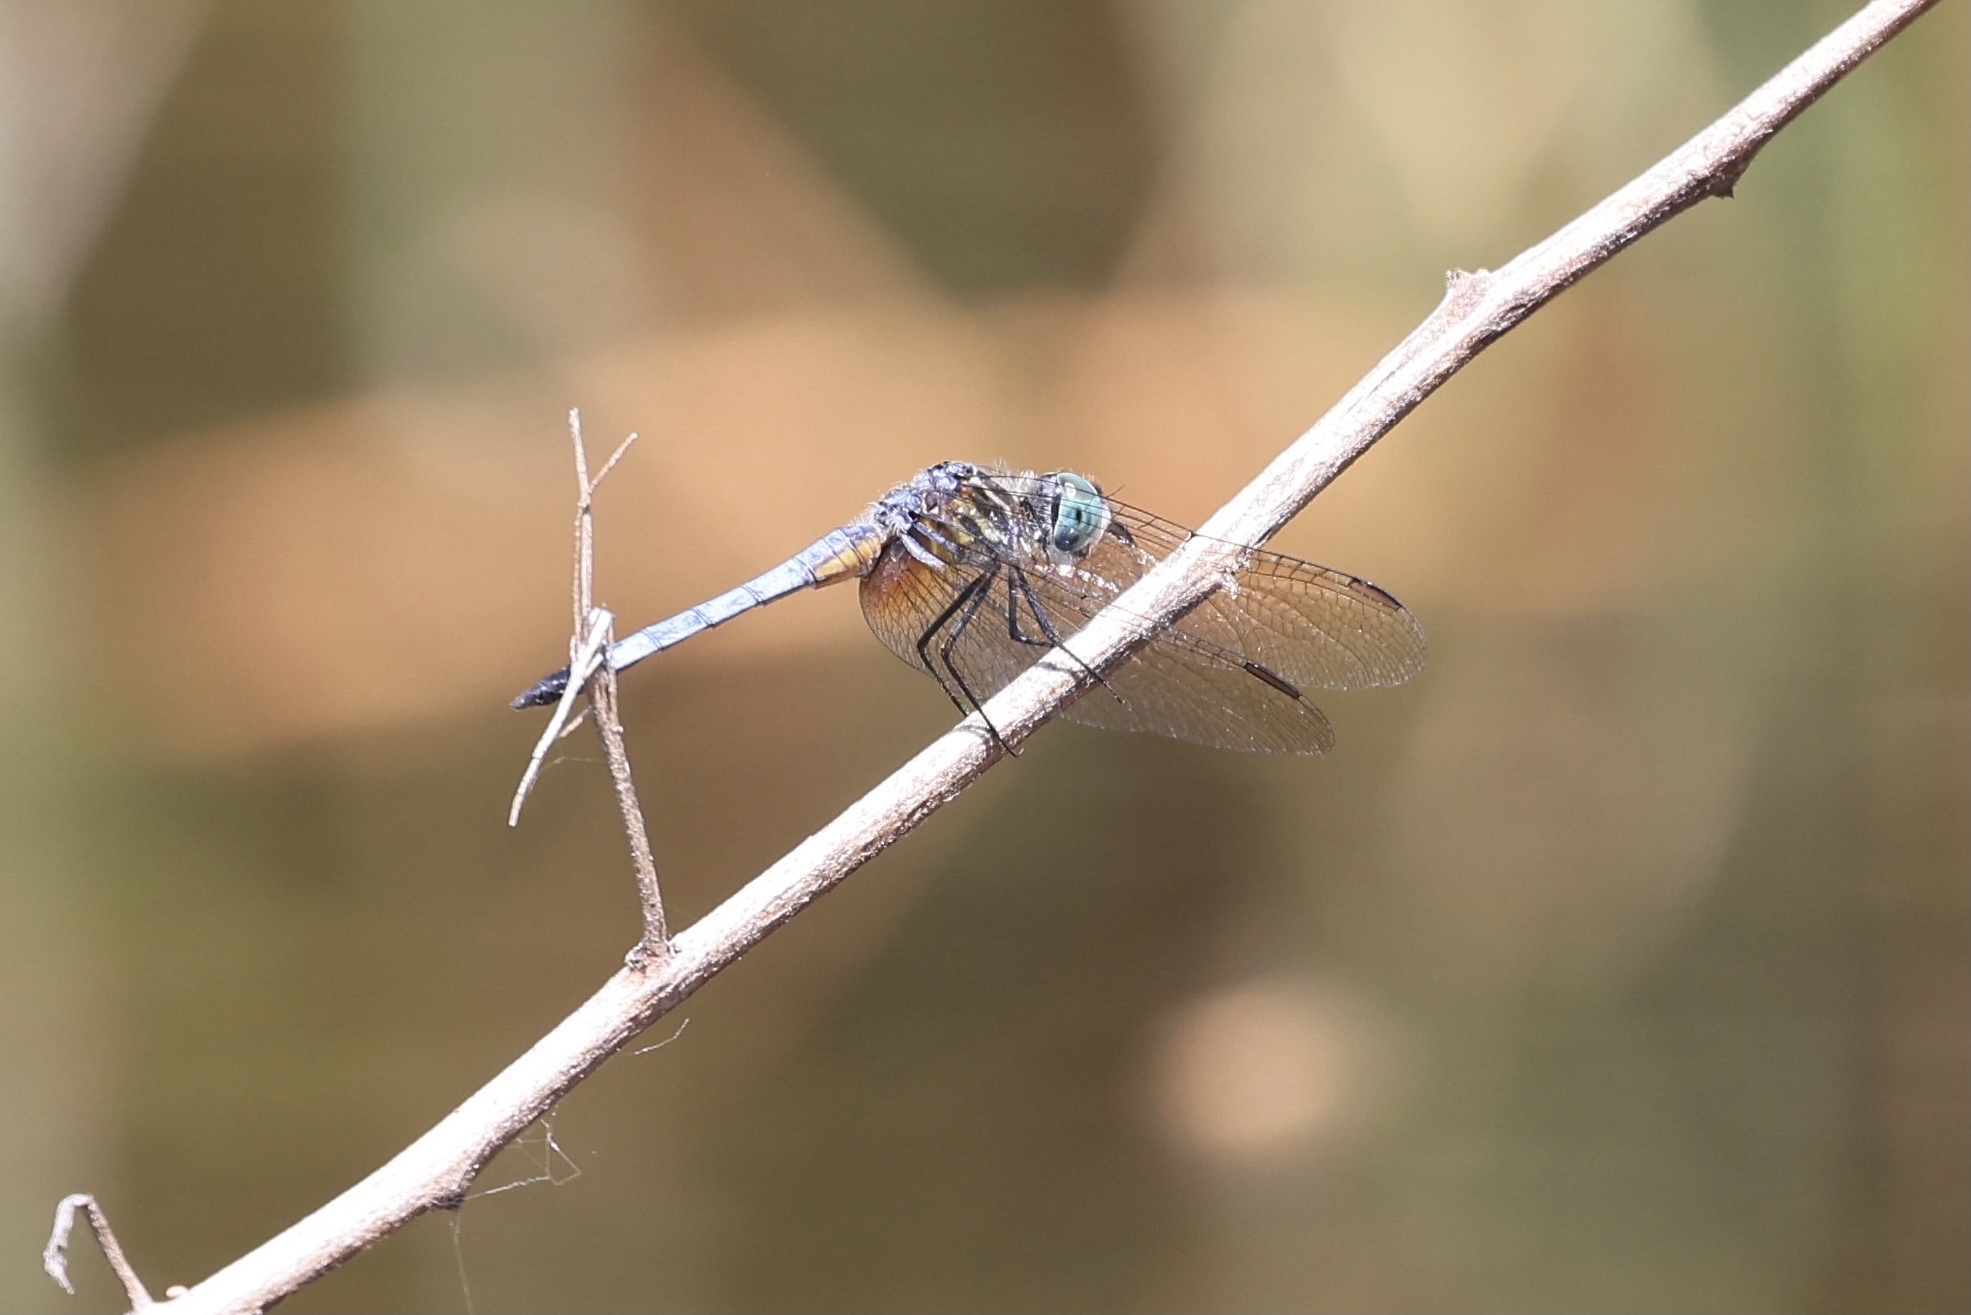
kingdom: Animalia
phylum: Arthropoda
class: Insecta
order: Odonata
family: Libellulidae
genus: Pachydiplax
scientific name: Pachydiplax longipennis
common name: Blue dasher
